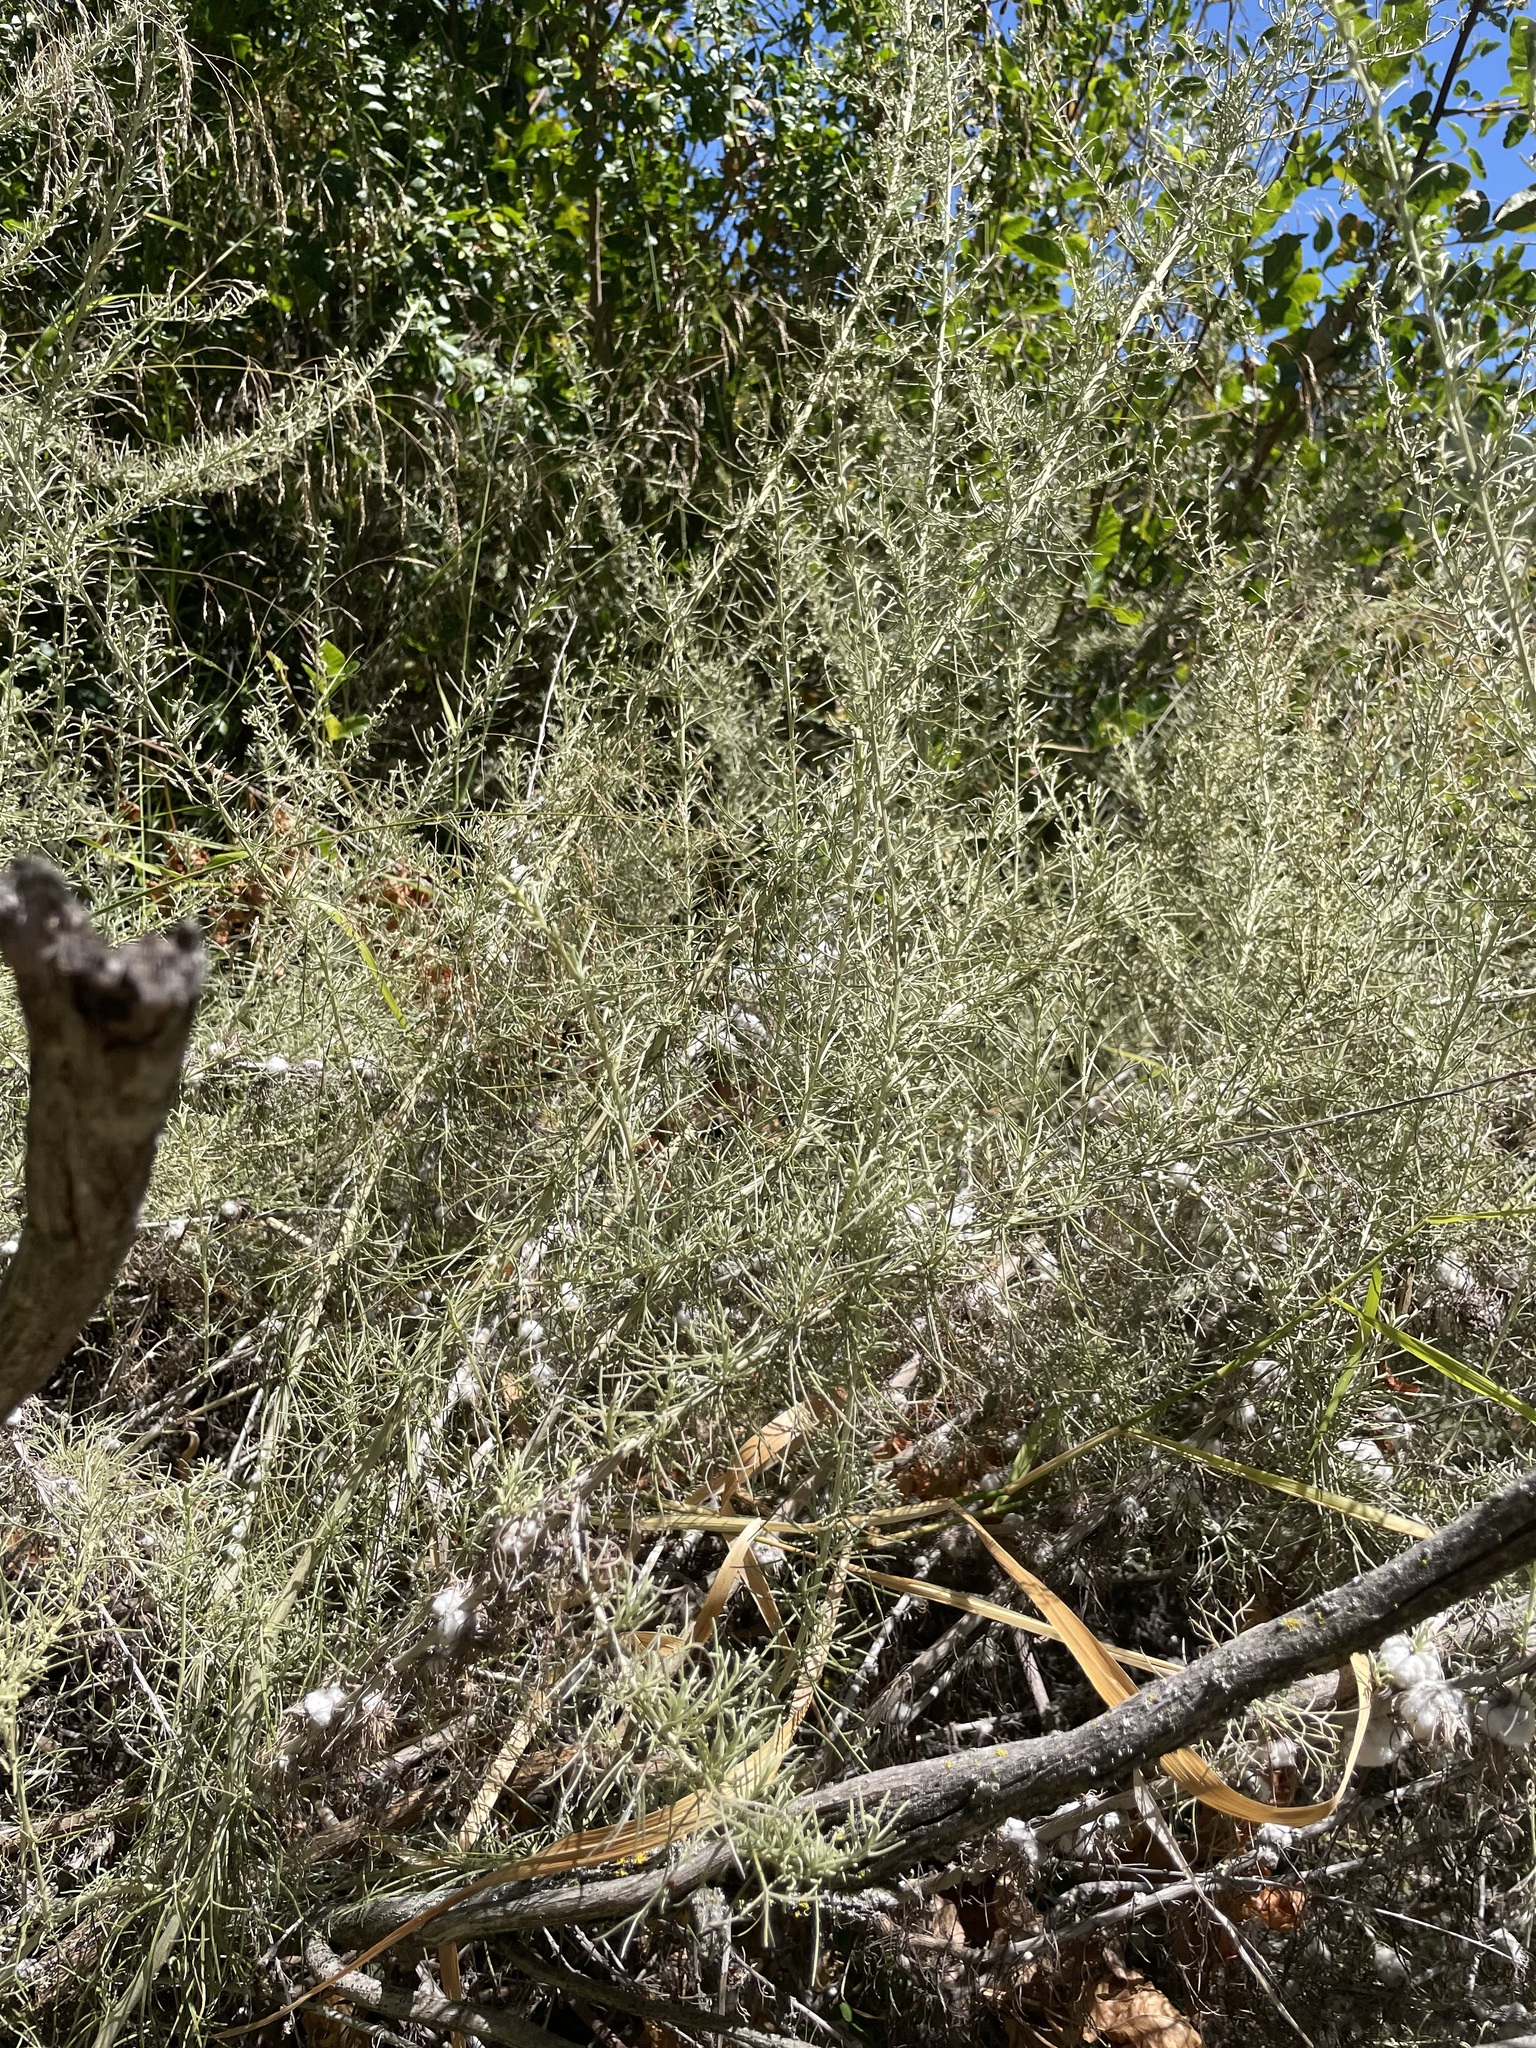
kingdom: Plantae
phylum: Tracheophyta
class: Magnoliopsida
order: Asterales
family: Asteraceae
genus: Artemisia
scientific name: Artemisia californica
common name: California sagebrush
